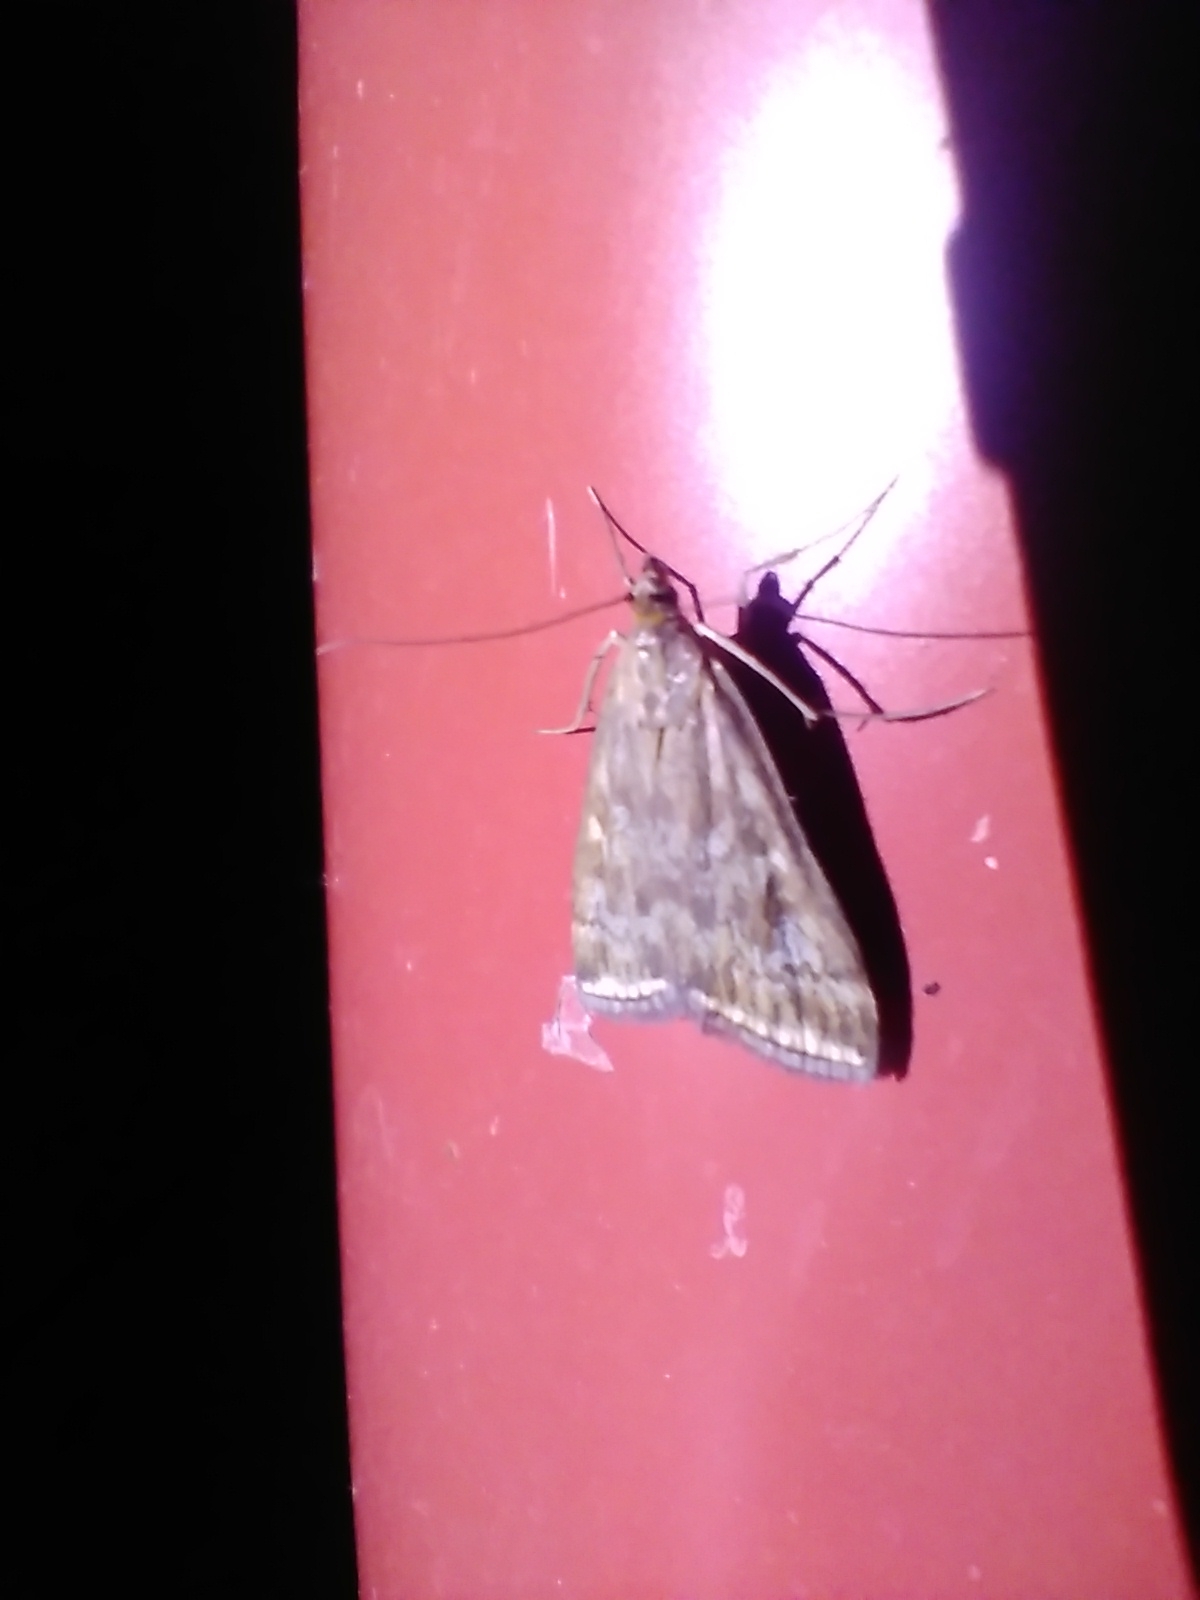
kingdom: Animalia
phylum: Arthropoda
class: Insecta
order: Lepidoptera
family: Crambidae
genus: Loxostege
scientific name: Loxostege sticticalis
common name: Crambid moth
